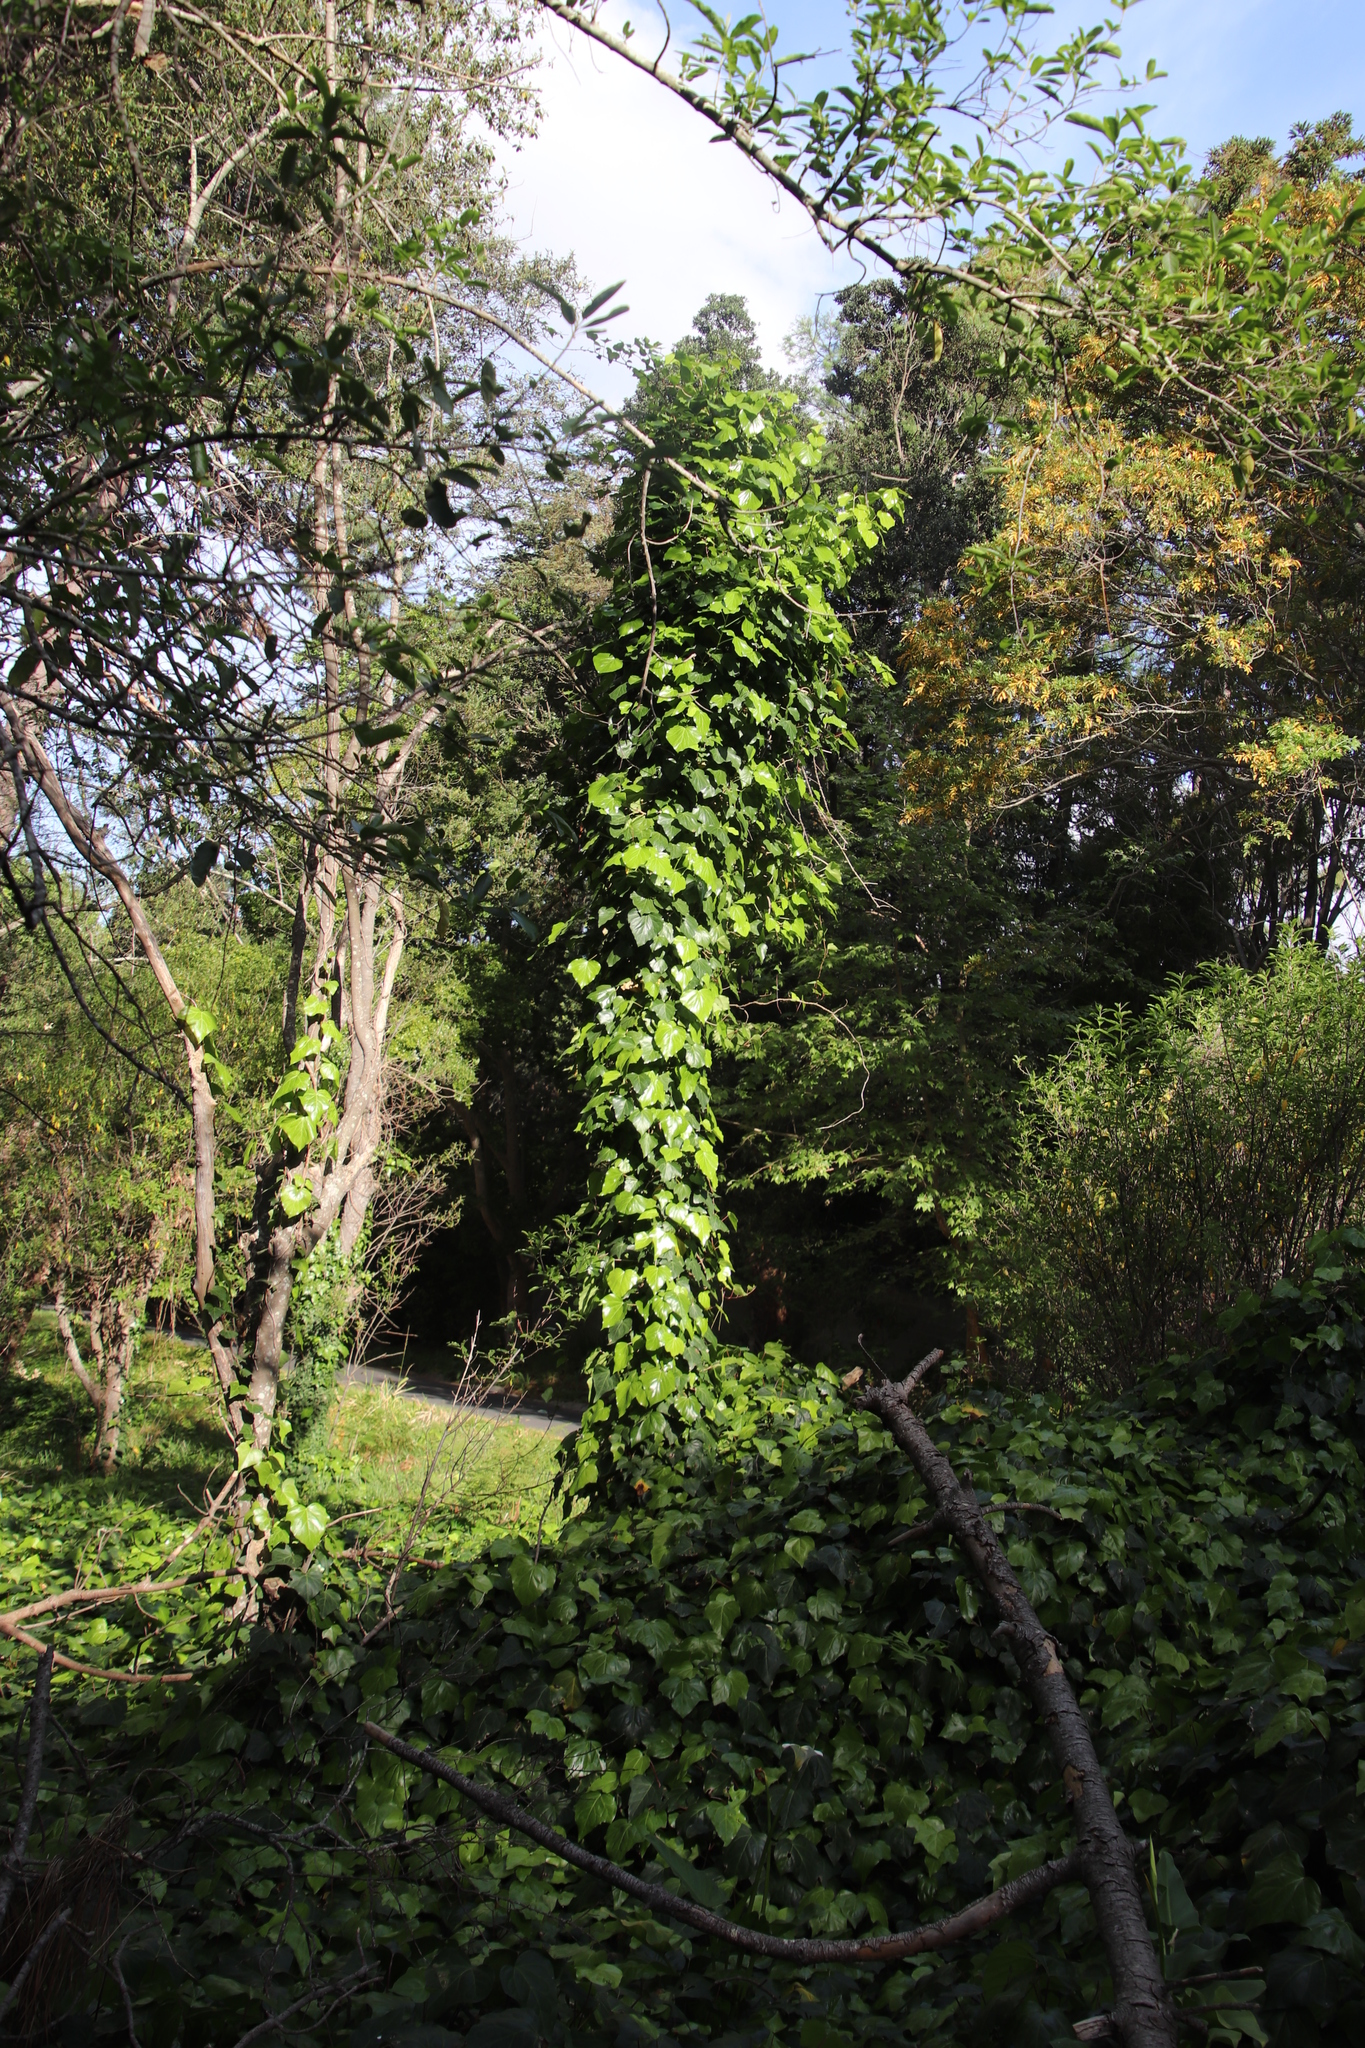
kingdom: Plantae
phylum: Tracheophyta
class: Magnoliopsida
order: Apiales
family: Araliaceae
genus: Hedera
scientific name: Hedera canariensis
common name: Madeira ivy
